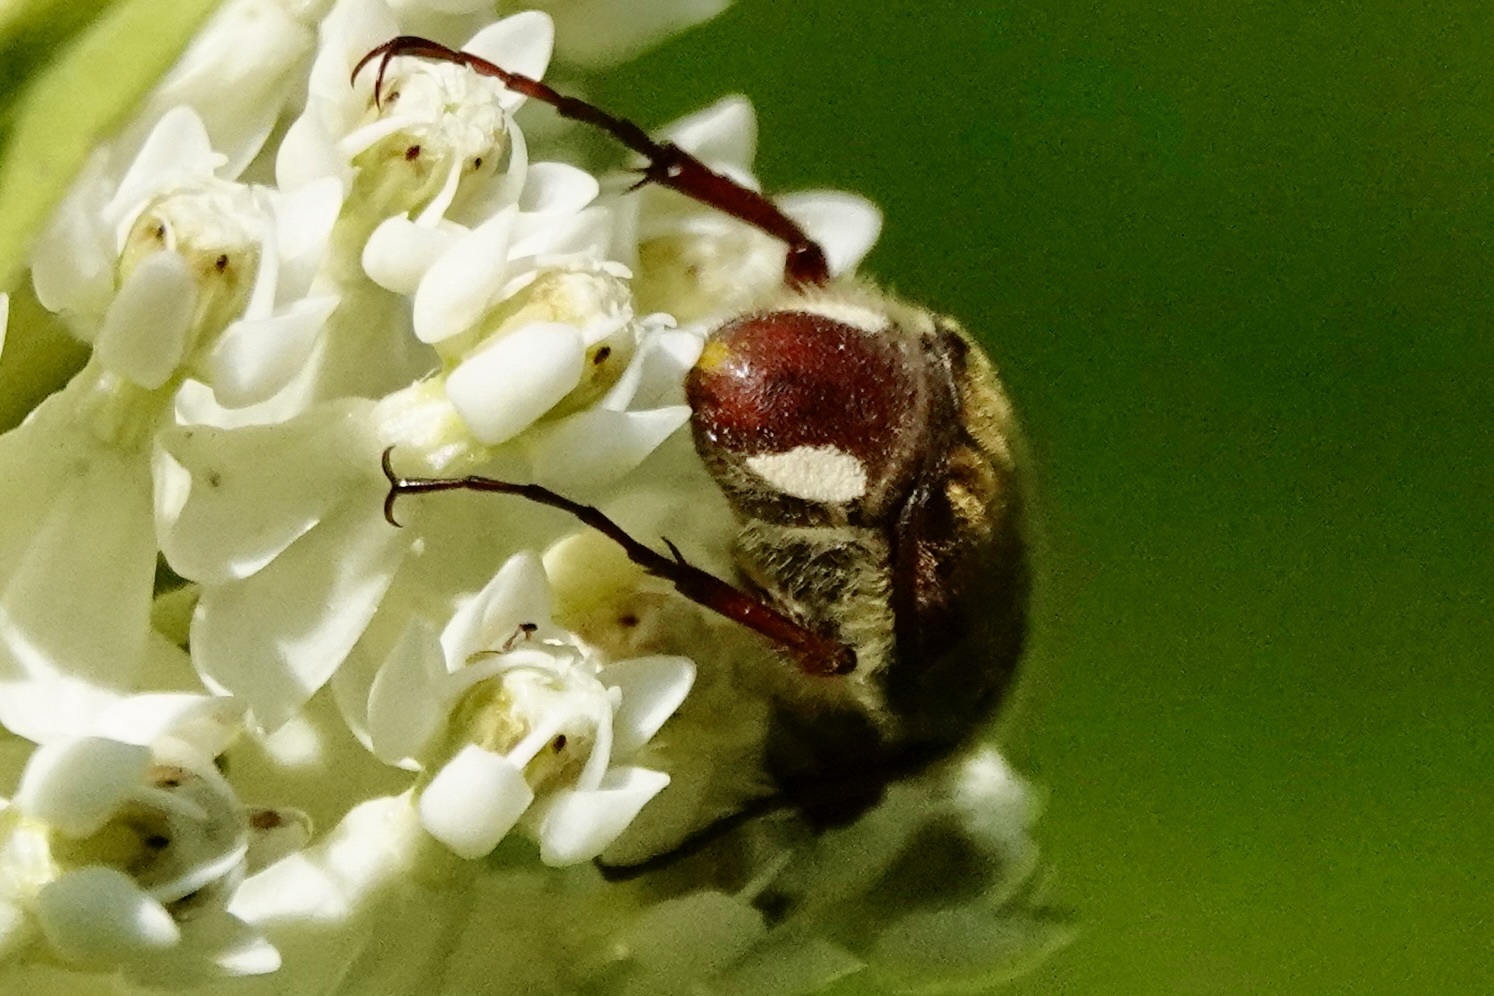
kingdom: Animalia
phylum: Arthropoda
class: Insecta
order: Coleoptera
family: Scarabaeidae
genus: Trichiotinus
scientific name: Trichiotinus piger
